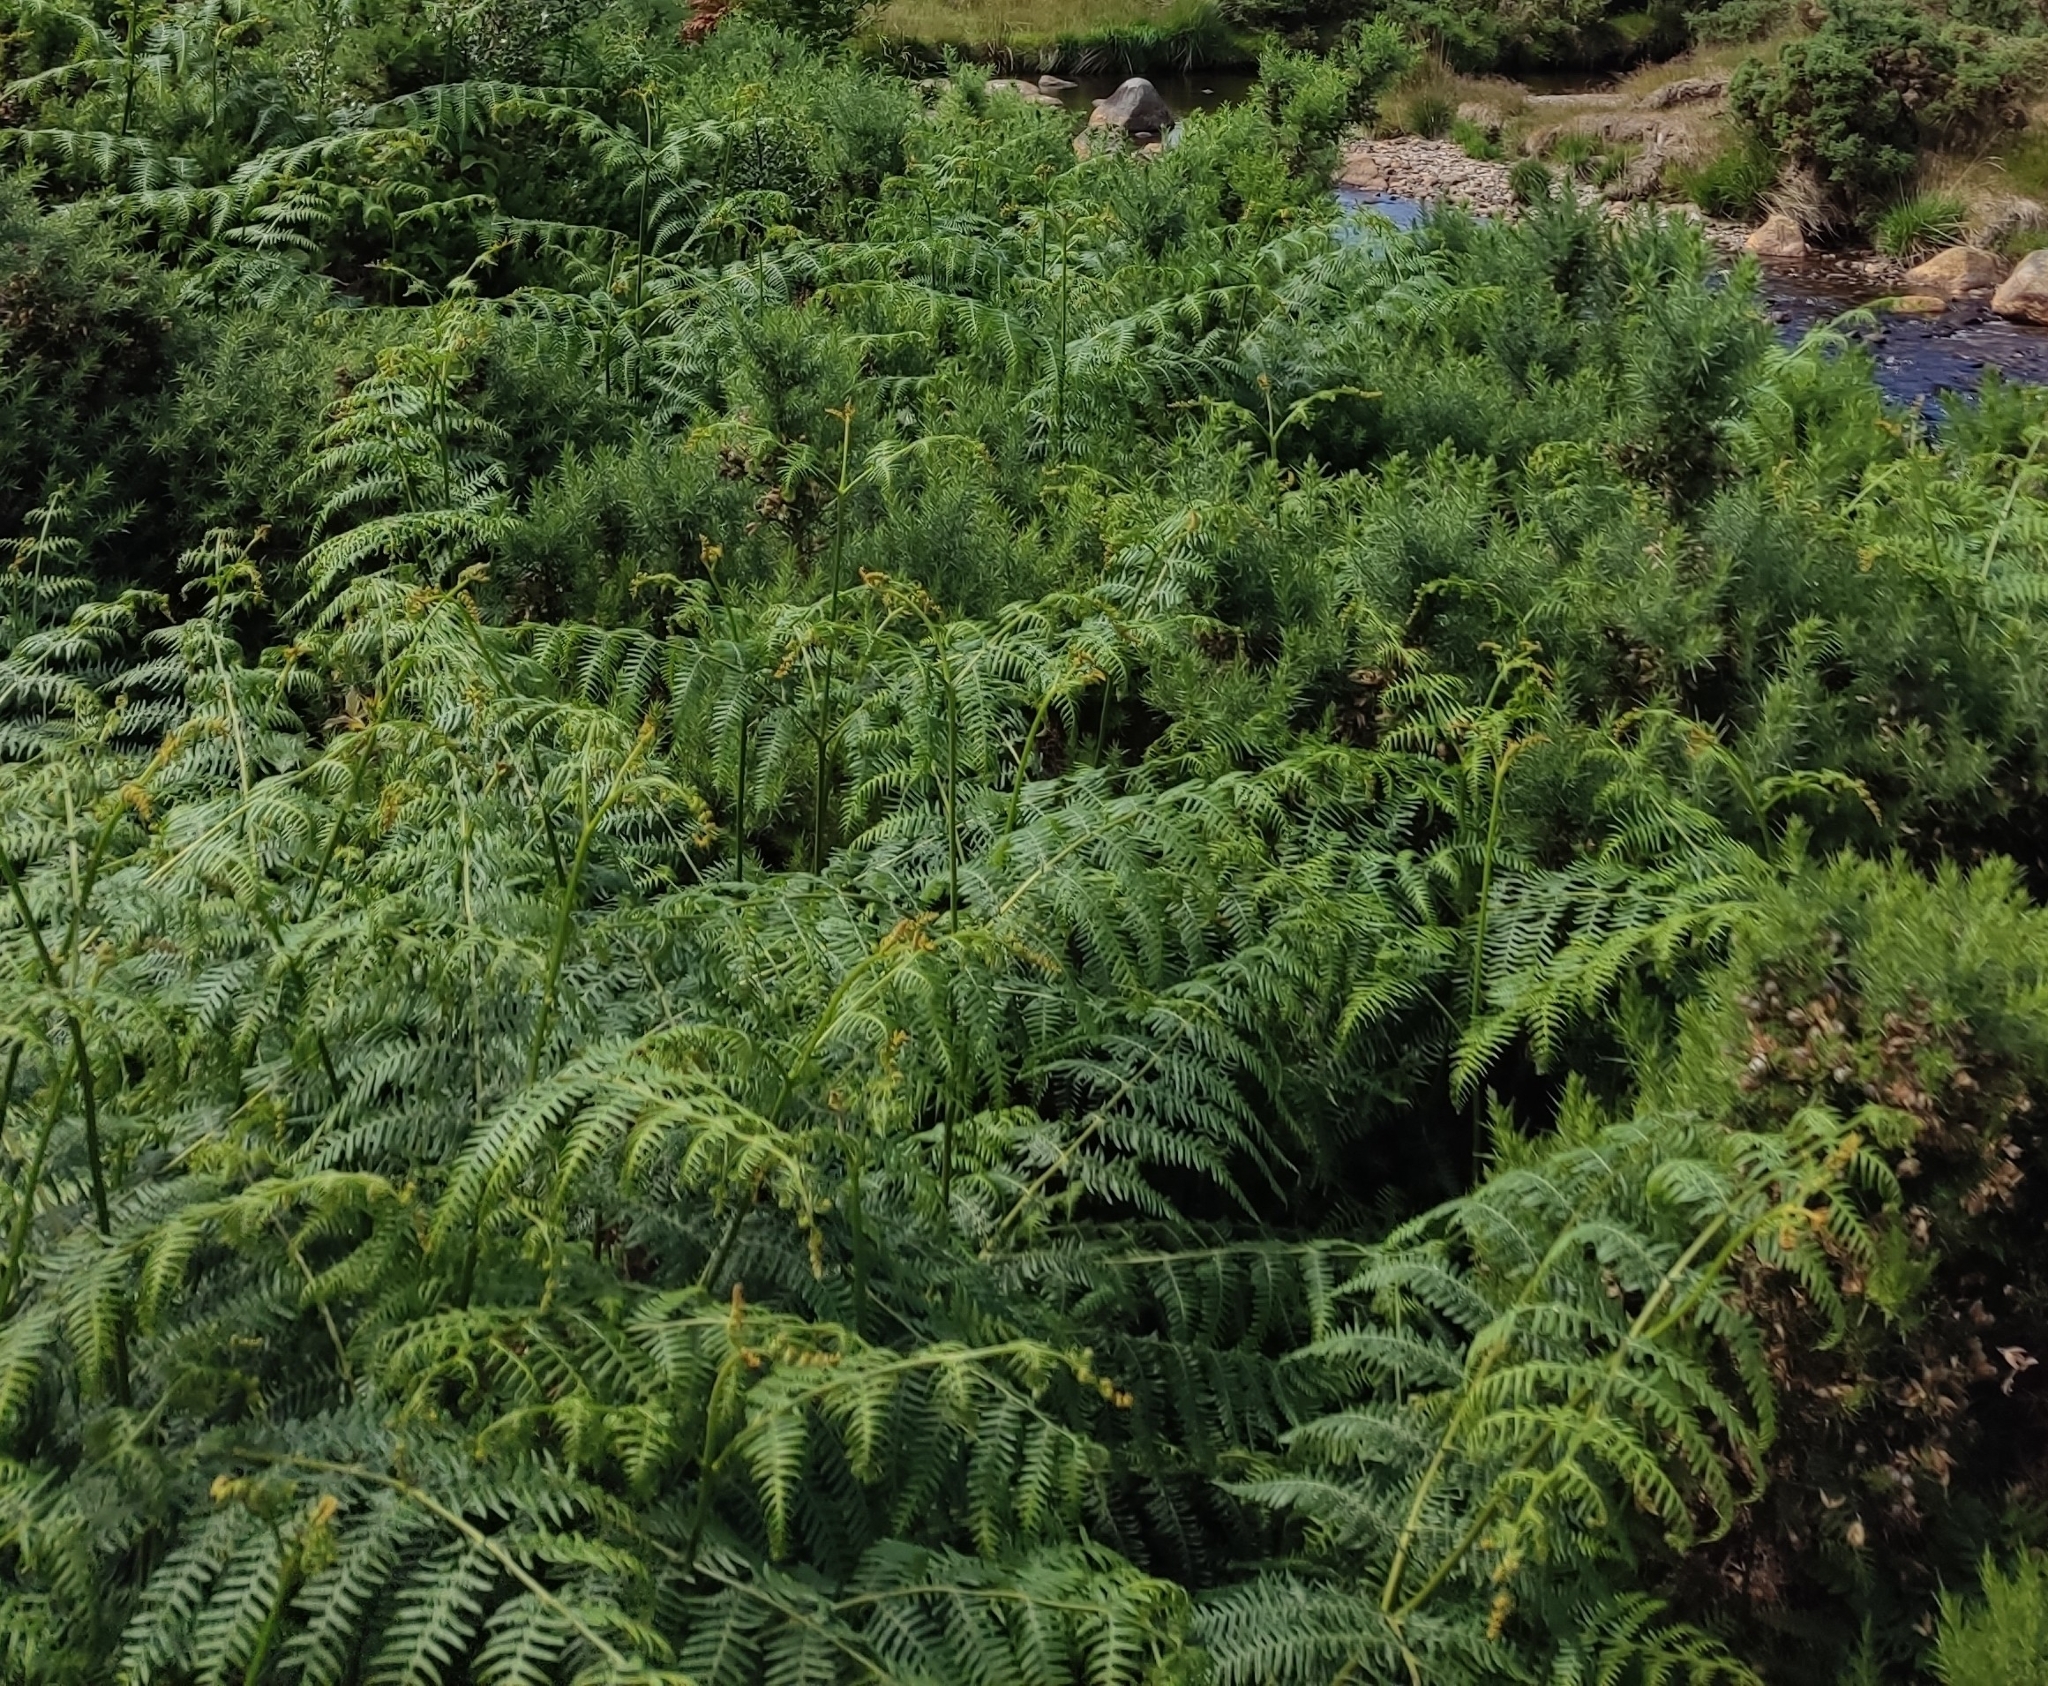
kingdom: Plantae
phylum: Tracheophyta
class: Polypodiopsida
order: Polypodiales
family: Dennstaedtiaceae
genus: Pteridium
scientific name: Pteridium aquilinum
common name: Bracken
